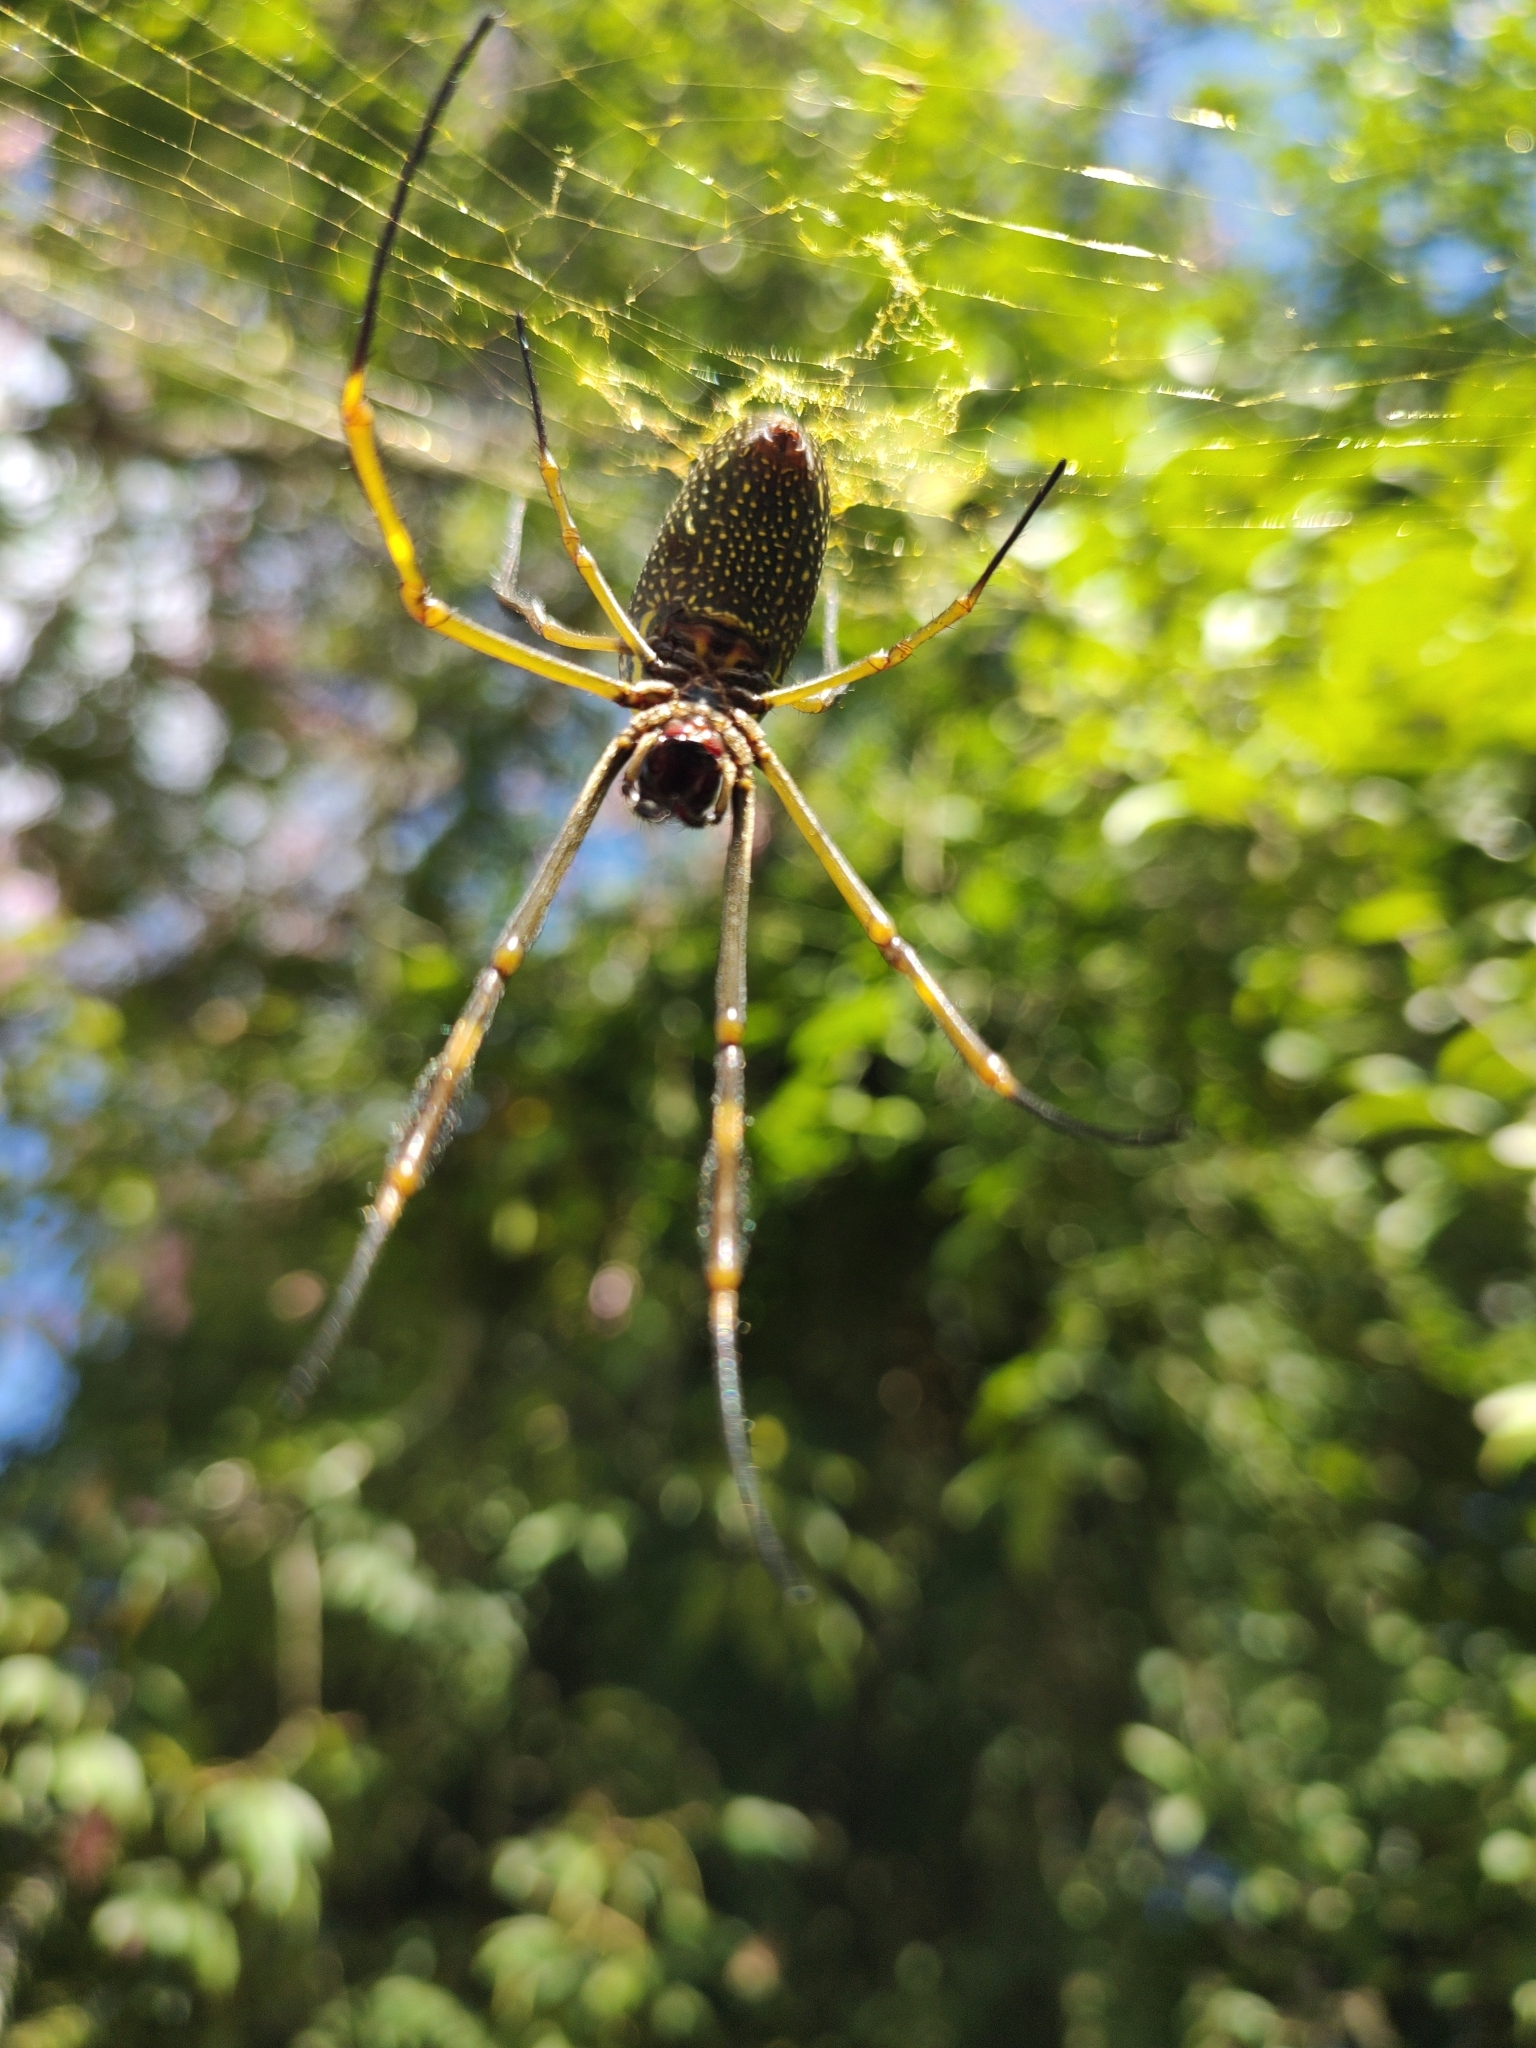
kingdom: Animalia
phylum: Arthropoda
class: Arachnida
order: Araneae
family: Araneidae
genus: Trichonephila
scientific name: Trichonephila clavipes
